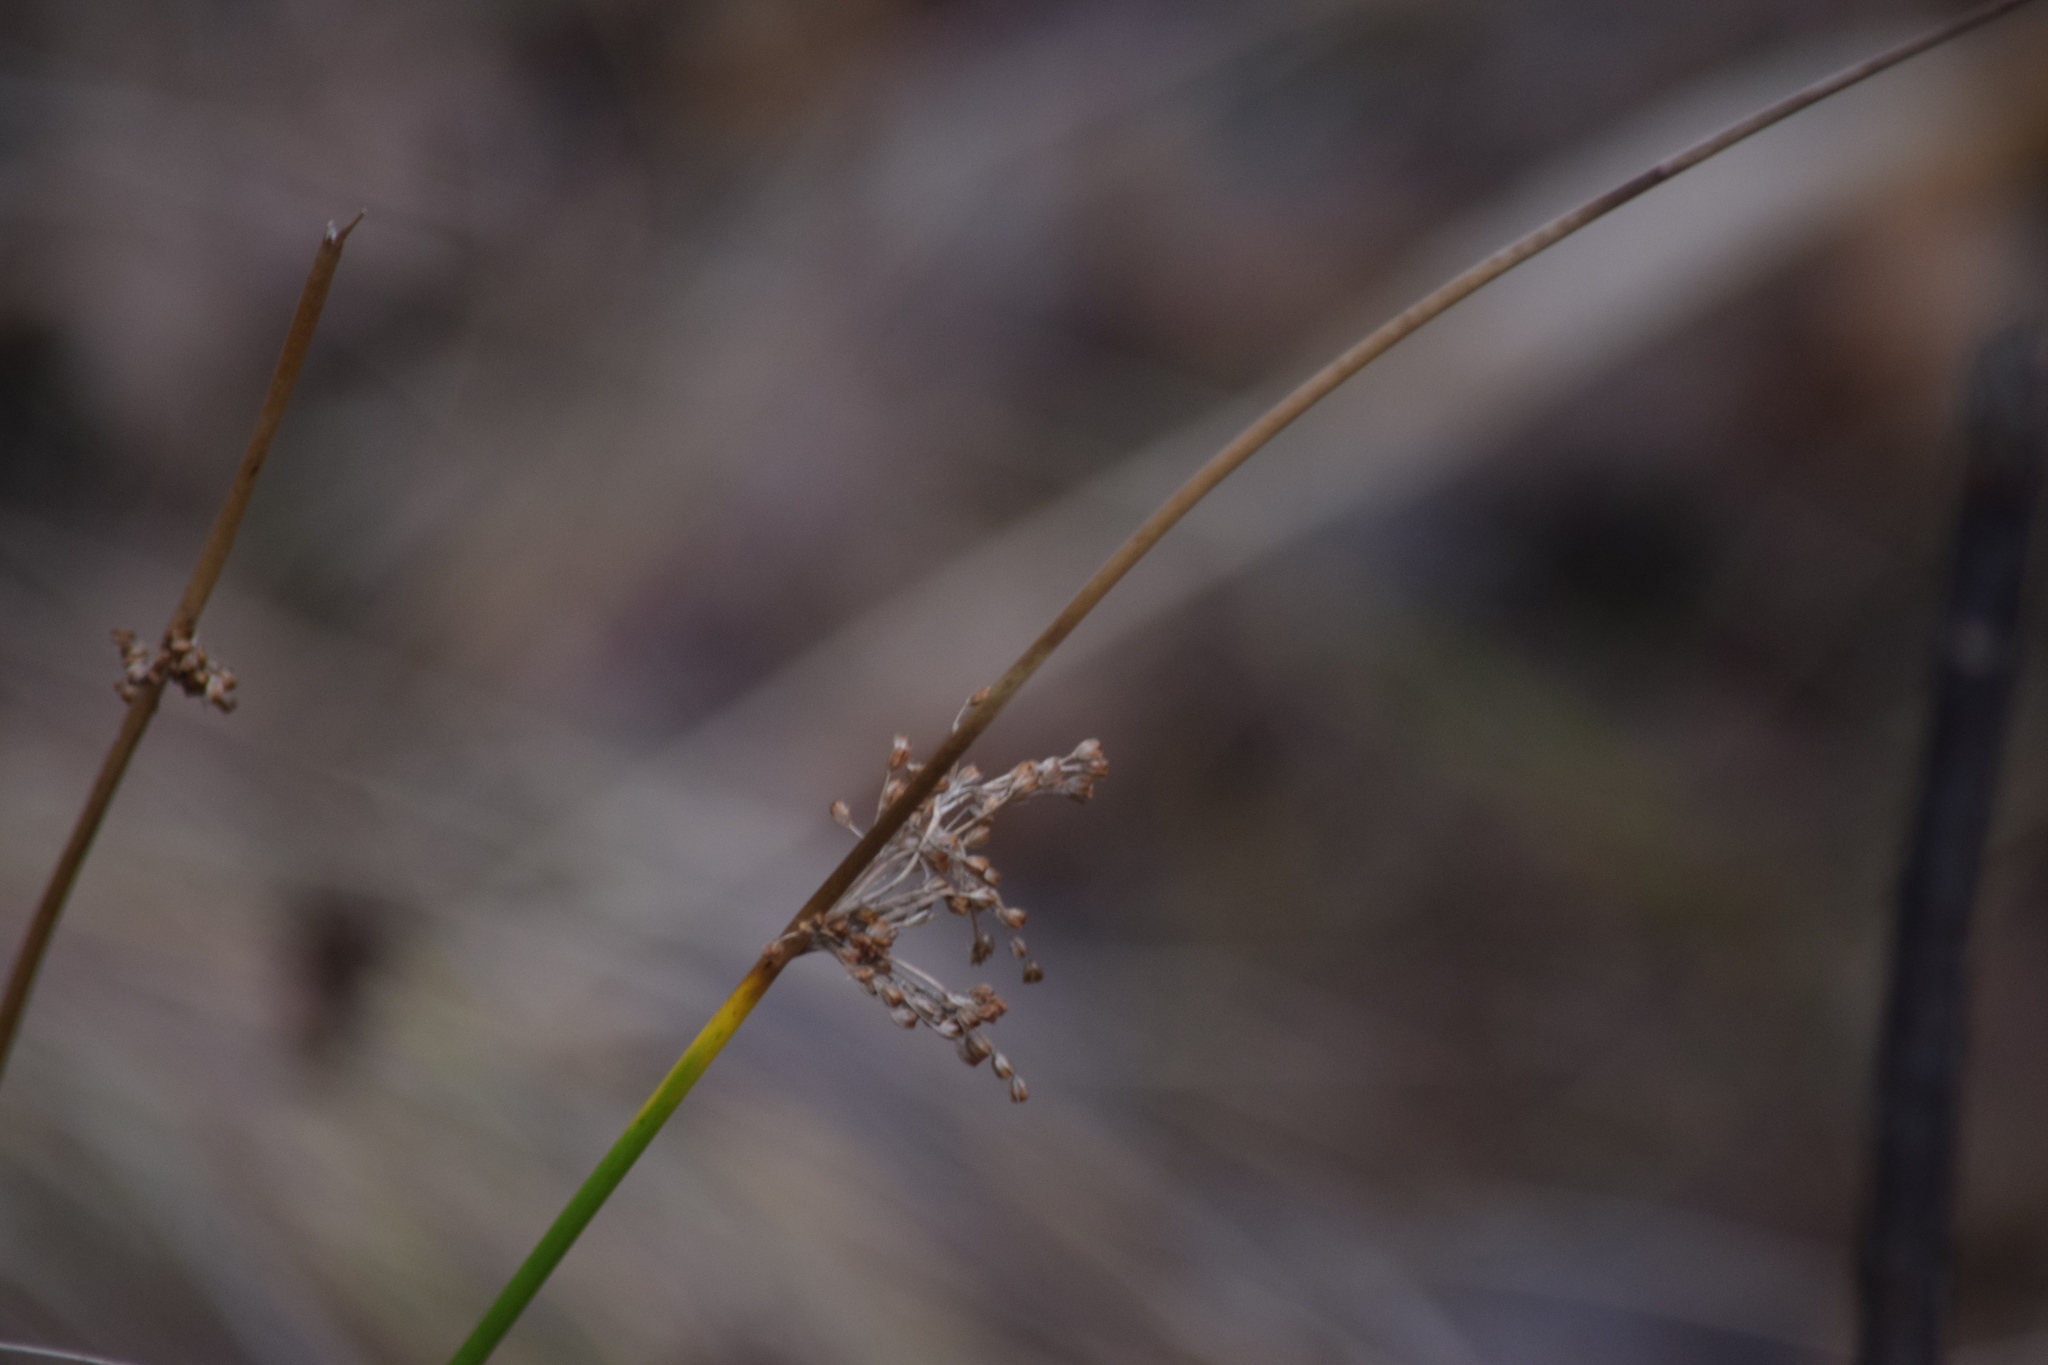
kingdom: Plantae
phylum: Tracheophyta
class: Liliopsida
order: Poales
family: Juncaceae
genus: Juncus
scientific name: Juncus effusus
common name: Soft rush
